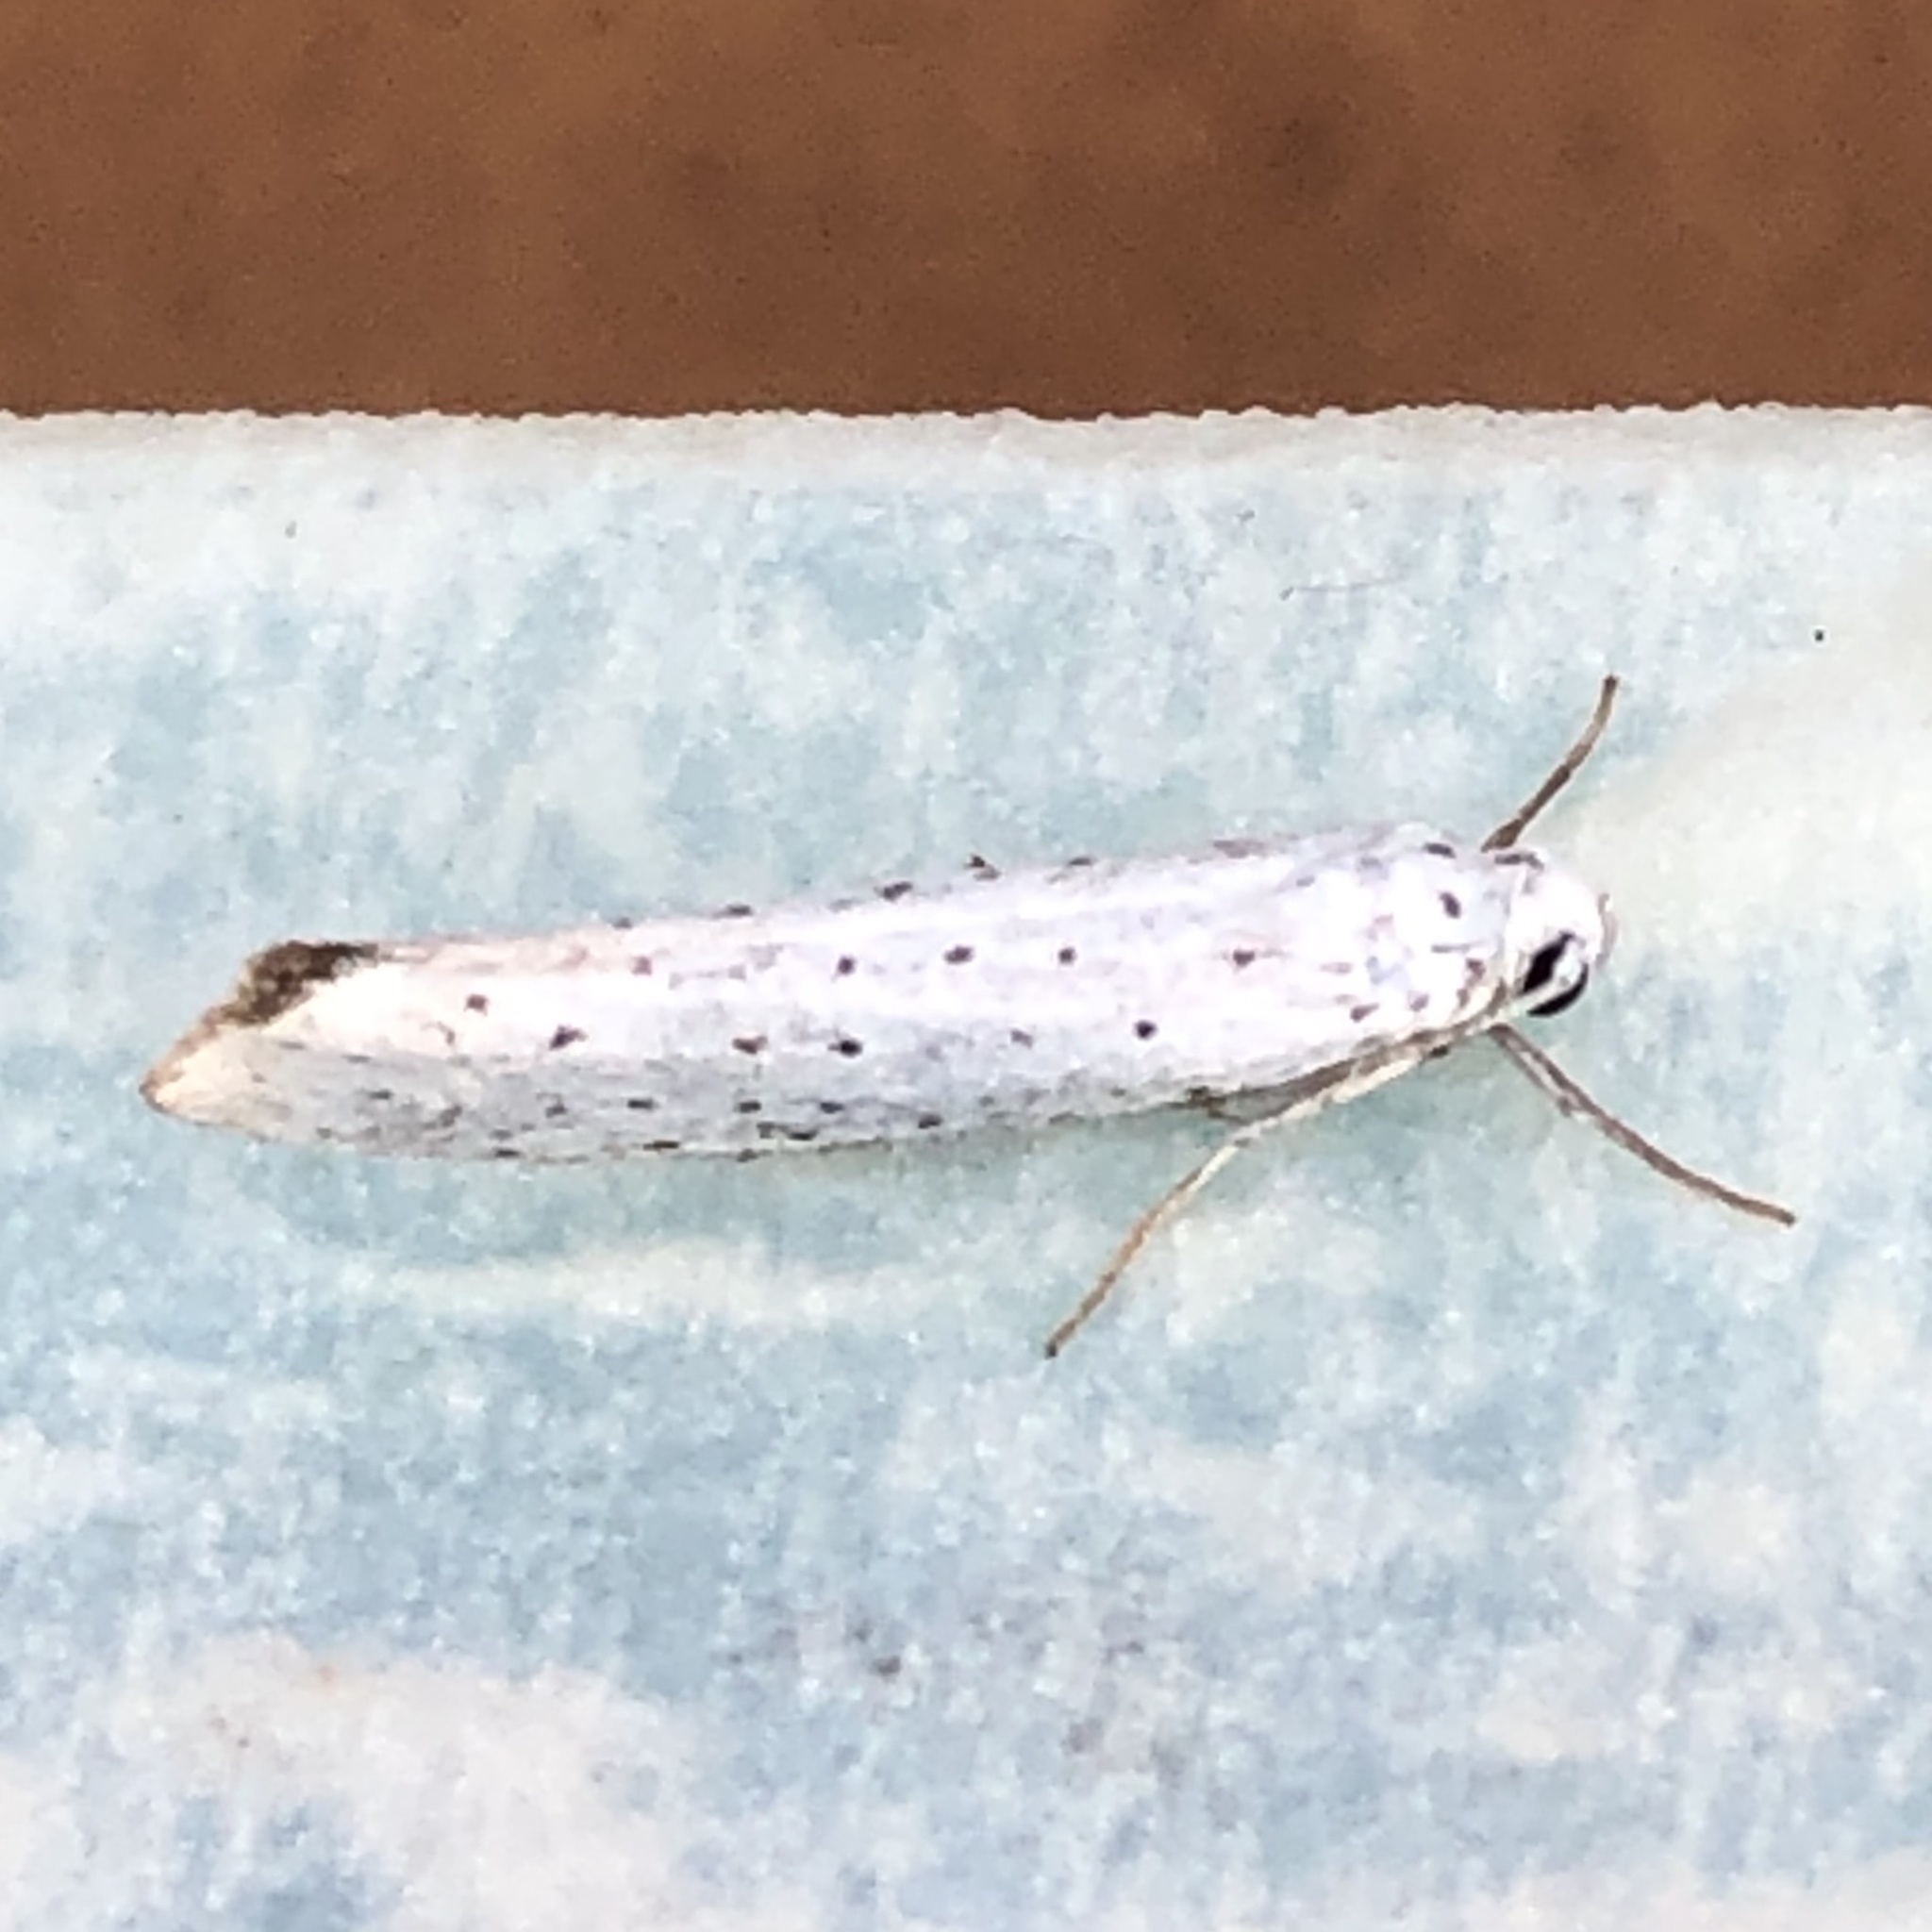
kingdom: Animalia
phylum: Arthropoda
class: Insecta
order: Lepidoptera
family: Yponomeutidae
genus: Yponomeuta
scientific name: Yponomeuta evonymella
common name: Bird-cherry ermine
